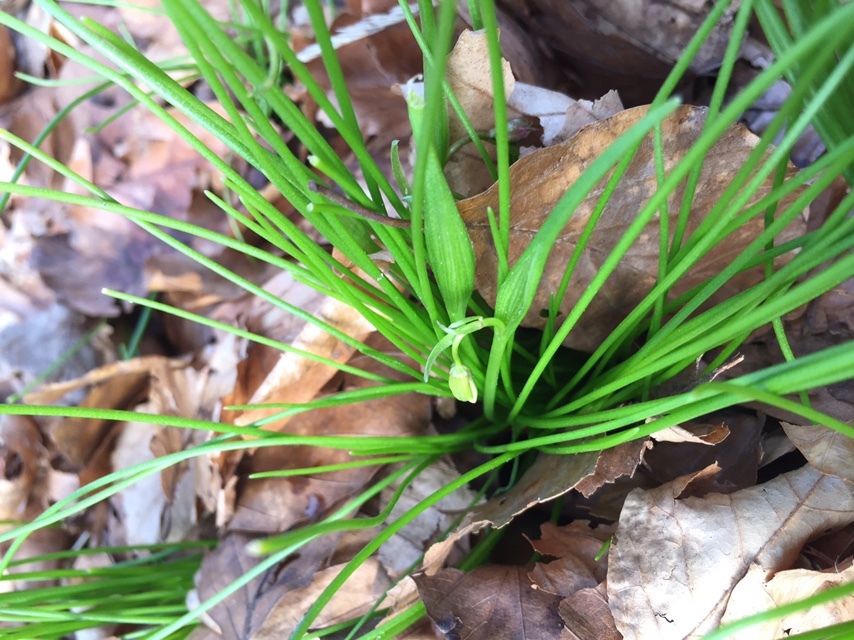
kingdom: Plantae
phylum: Tracheophyta
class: Liliopsida
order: Liliales
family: Liliaceae
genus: Gagea
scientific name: Gagea spathacea
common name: Belgian gagea
